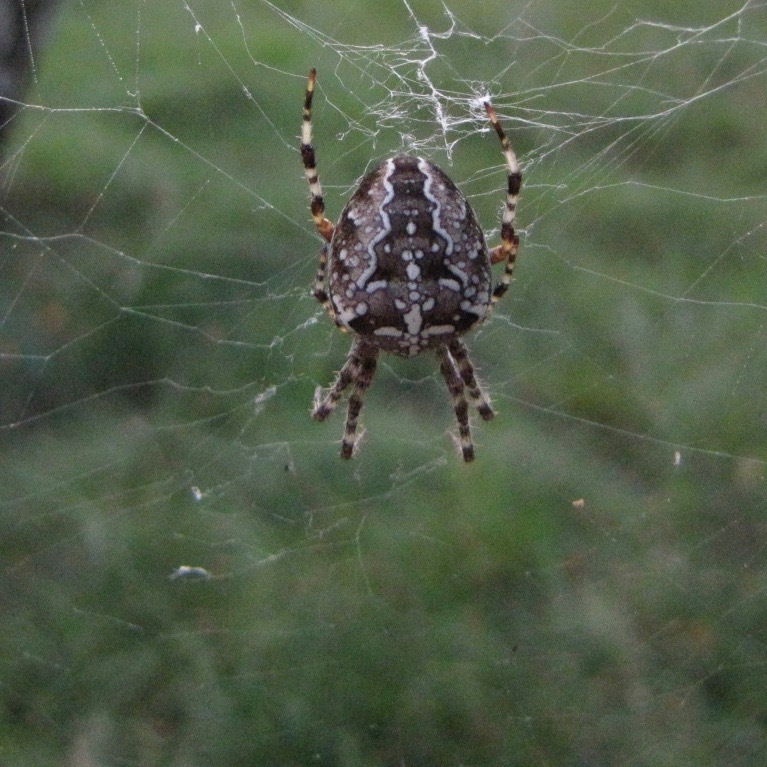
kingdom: Animalia
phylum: Arthropoda
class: Arachnida
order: Araneae
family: Araneidae
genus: Araneus
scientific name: Araneus diadematus
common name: Cross orbweaver
